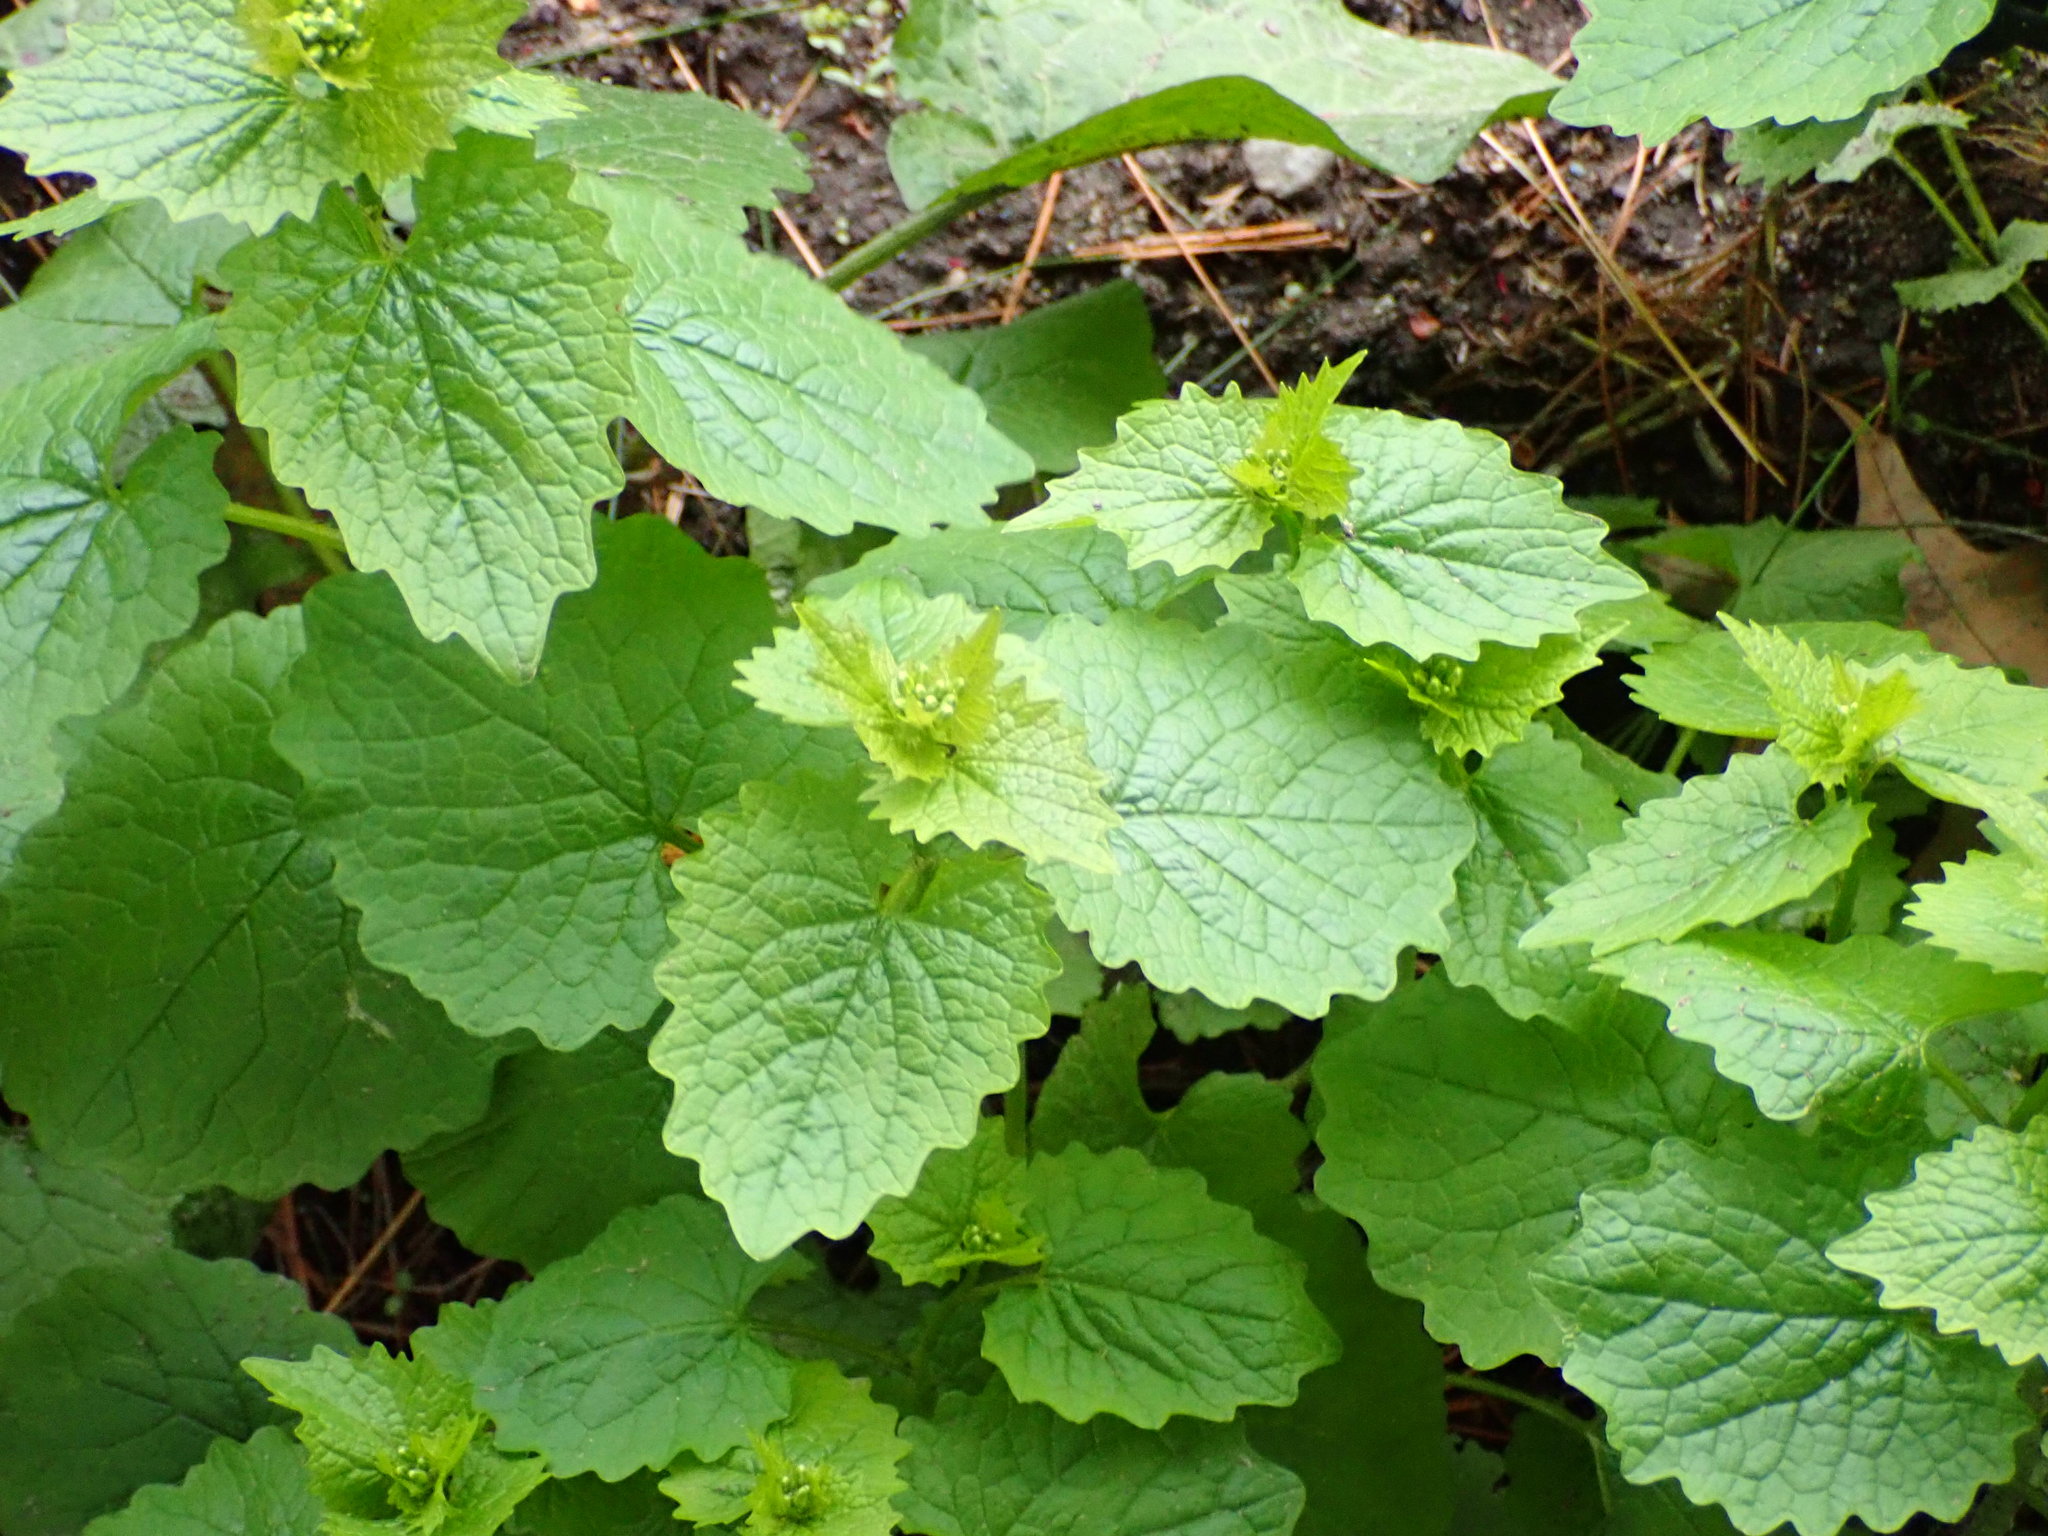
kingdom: Plantae
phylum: Tracheophyta
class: Magnoliopsida
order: Brassicales
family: Brassicaceae
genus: Alliaria
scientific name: Alliaria petiolata
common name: Garlic mustard
